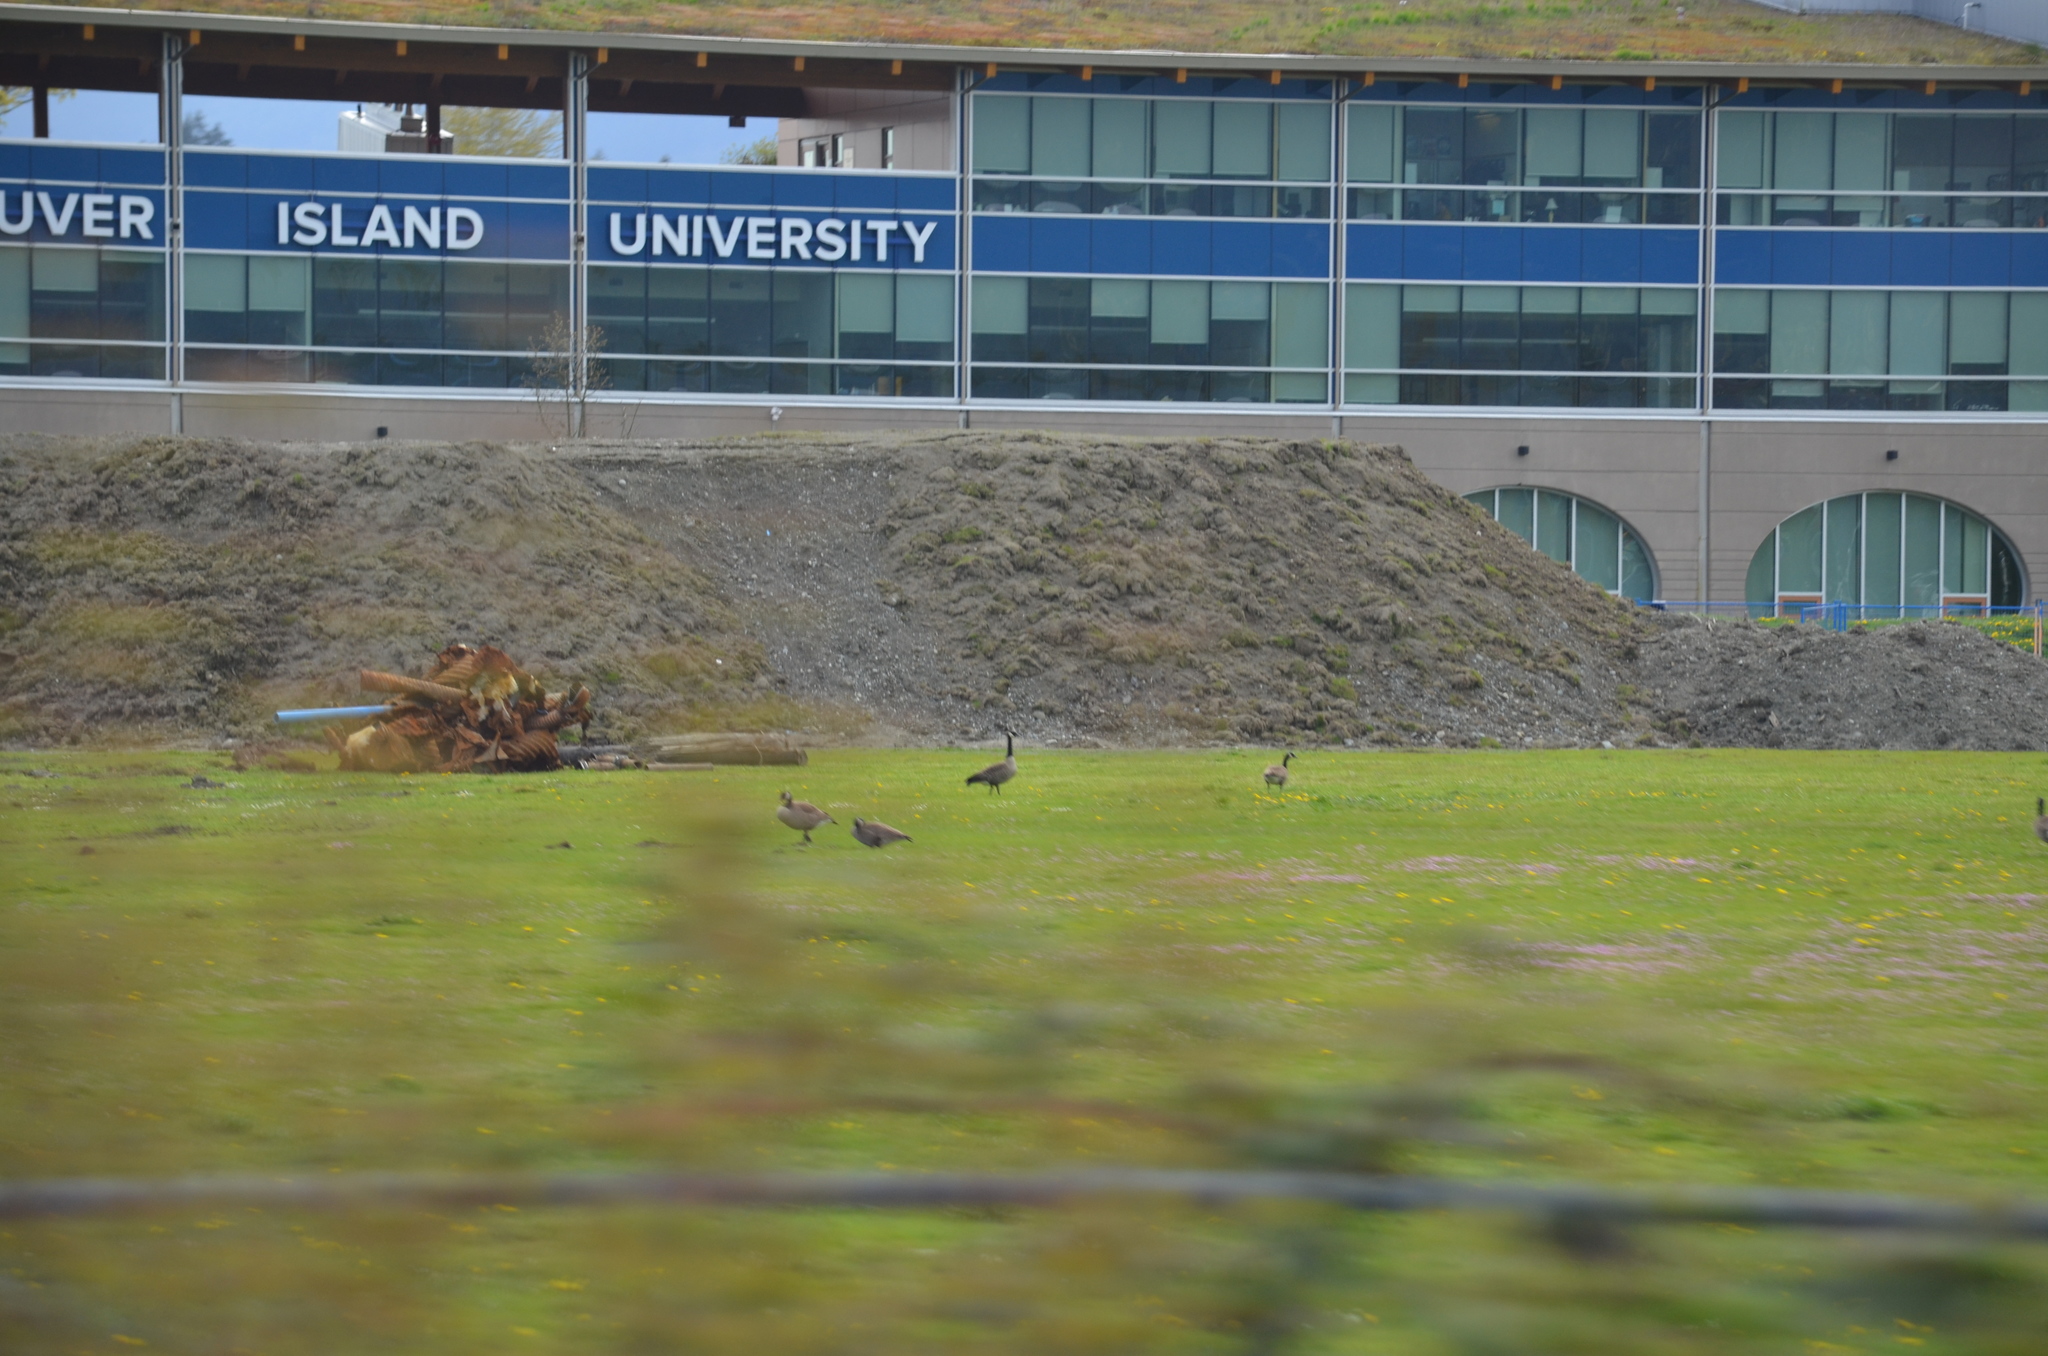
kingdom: Animalia
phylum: Chordata
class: Aves
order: Anseriformes
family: Anatidae
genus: Branta
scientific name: Branta canadensis
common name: Canada goose
